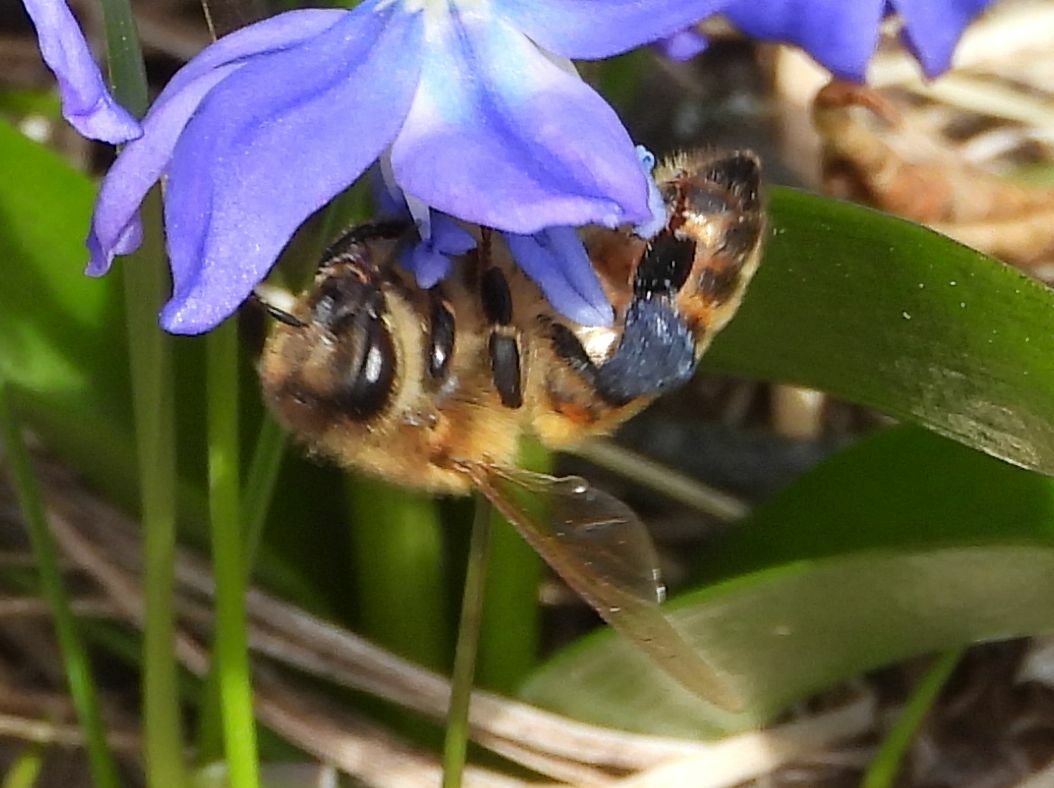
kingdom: Animalia
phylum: Arthropoda
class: Insecta
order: Hymenoptera
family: Apidae
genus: Apis
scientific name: Apis mellifera
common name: Honey bee
